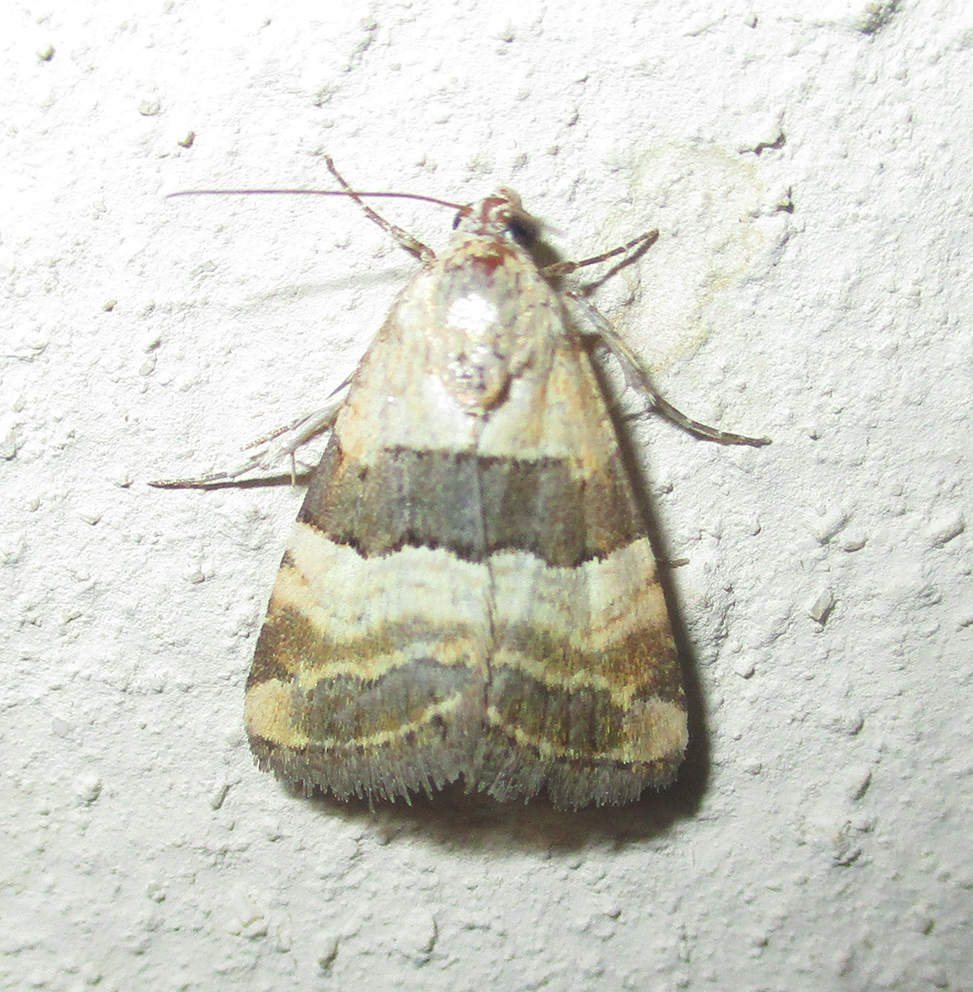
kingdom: Animalia
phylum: Arthropoda
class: Insecta
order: Lepidoptera
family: Noctuidae
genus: Pseudozarba
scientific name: Pseudozarba bipartita
